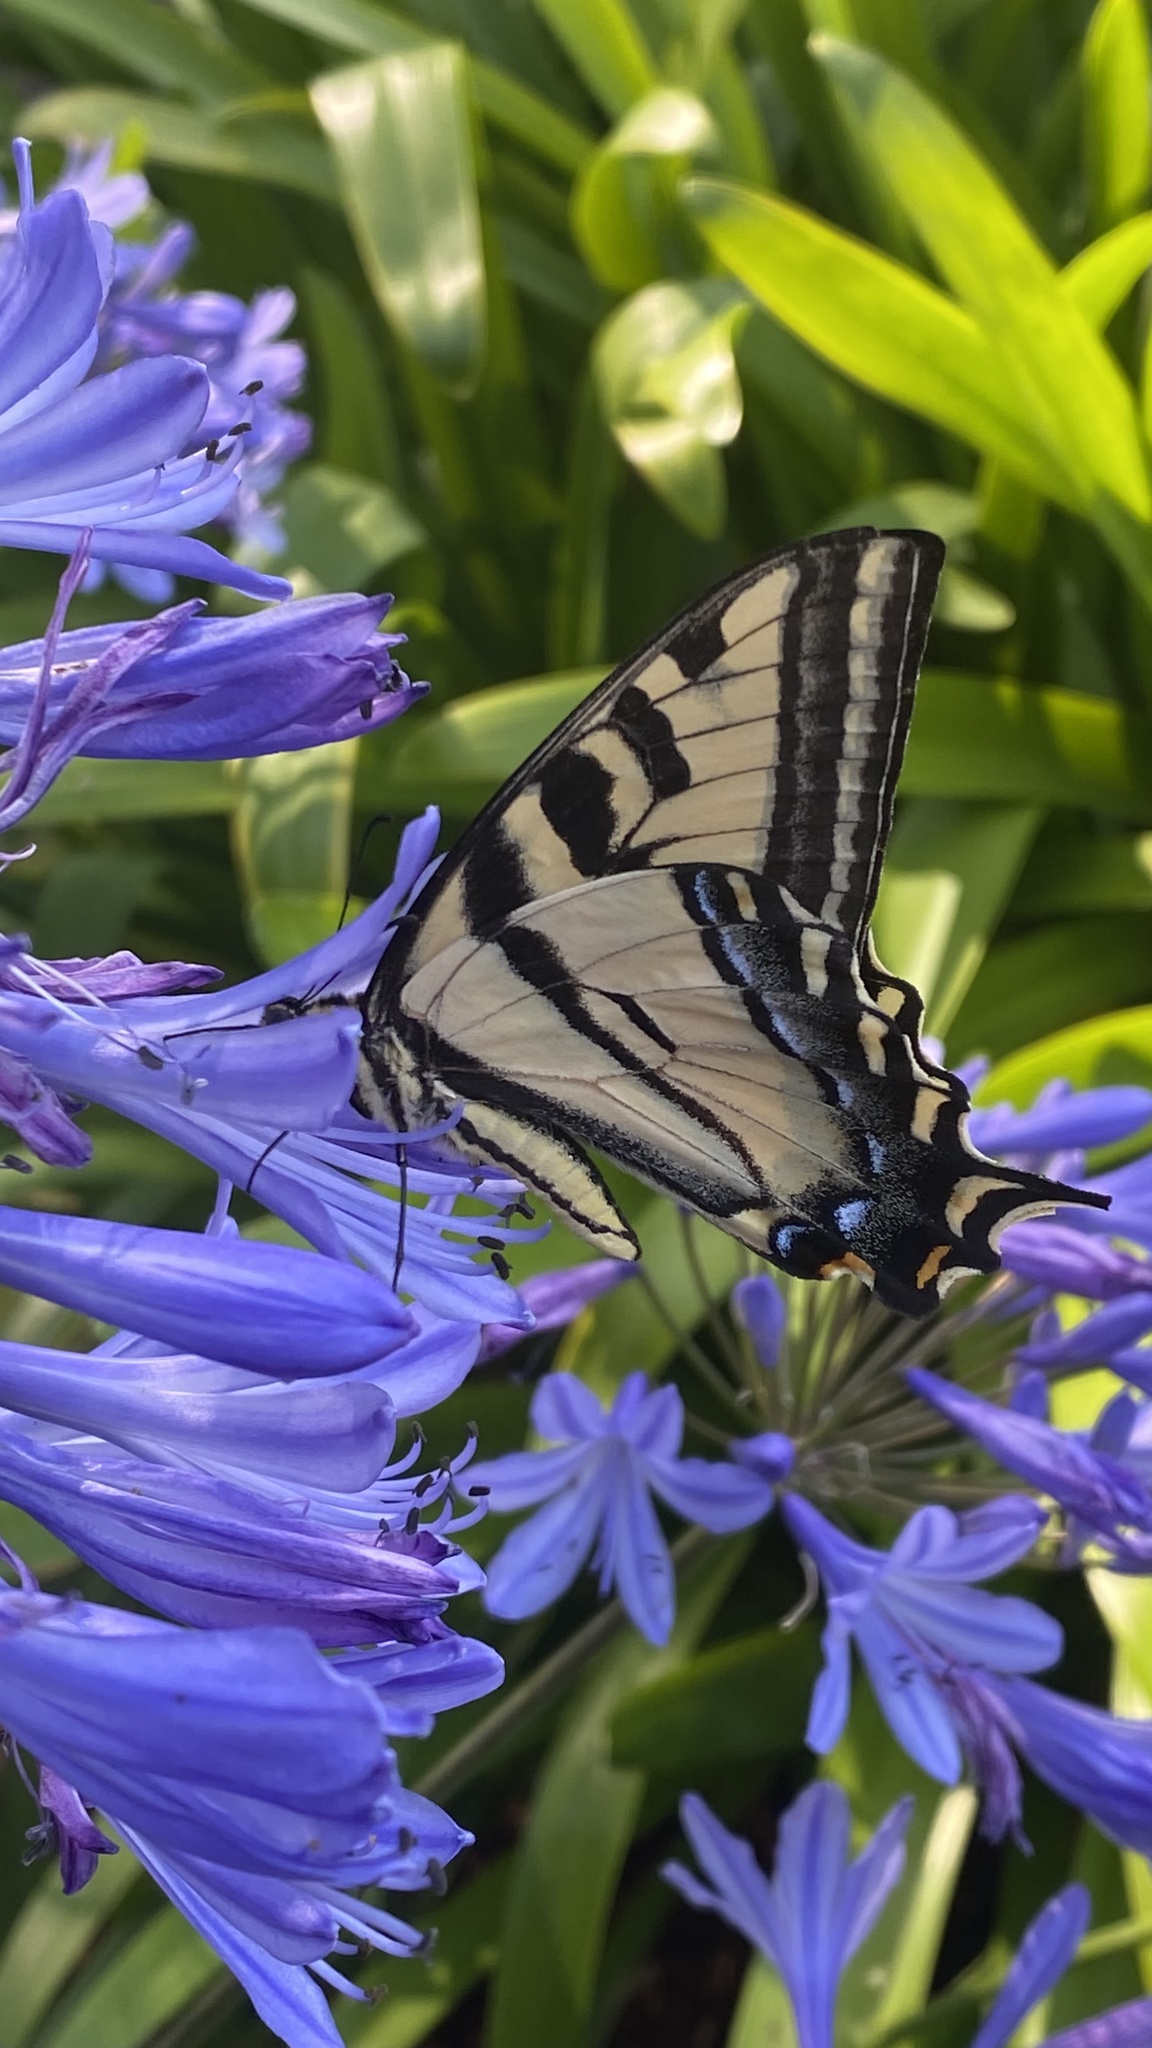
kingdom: Animalia
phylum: Arthropoda
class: Insecta
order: Lepidoptera
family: Papilionidae
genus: Papilio
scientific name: Papilio rutulus
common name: Western tiger swallowtail
